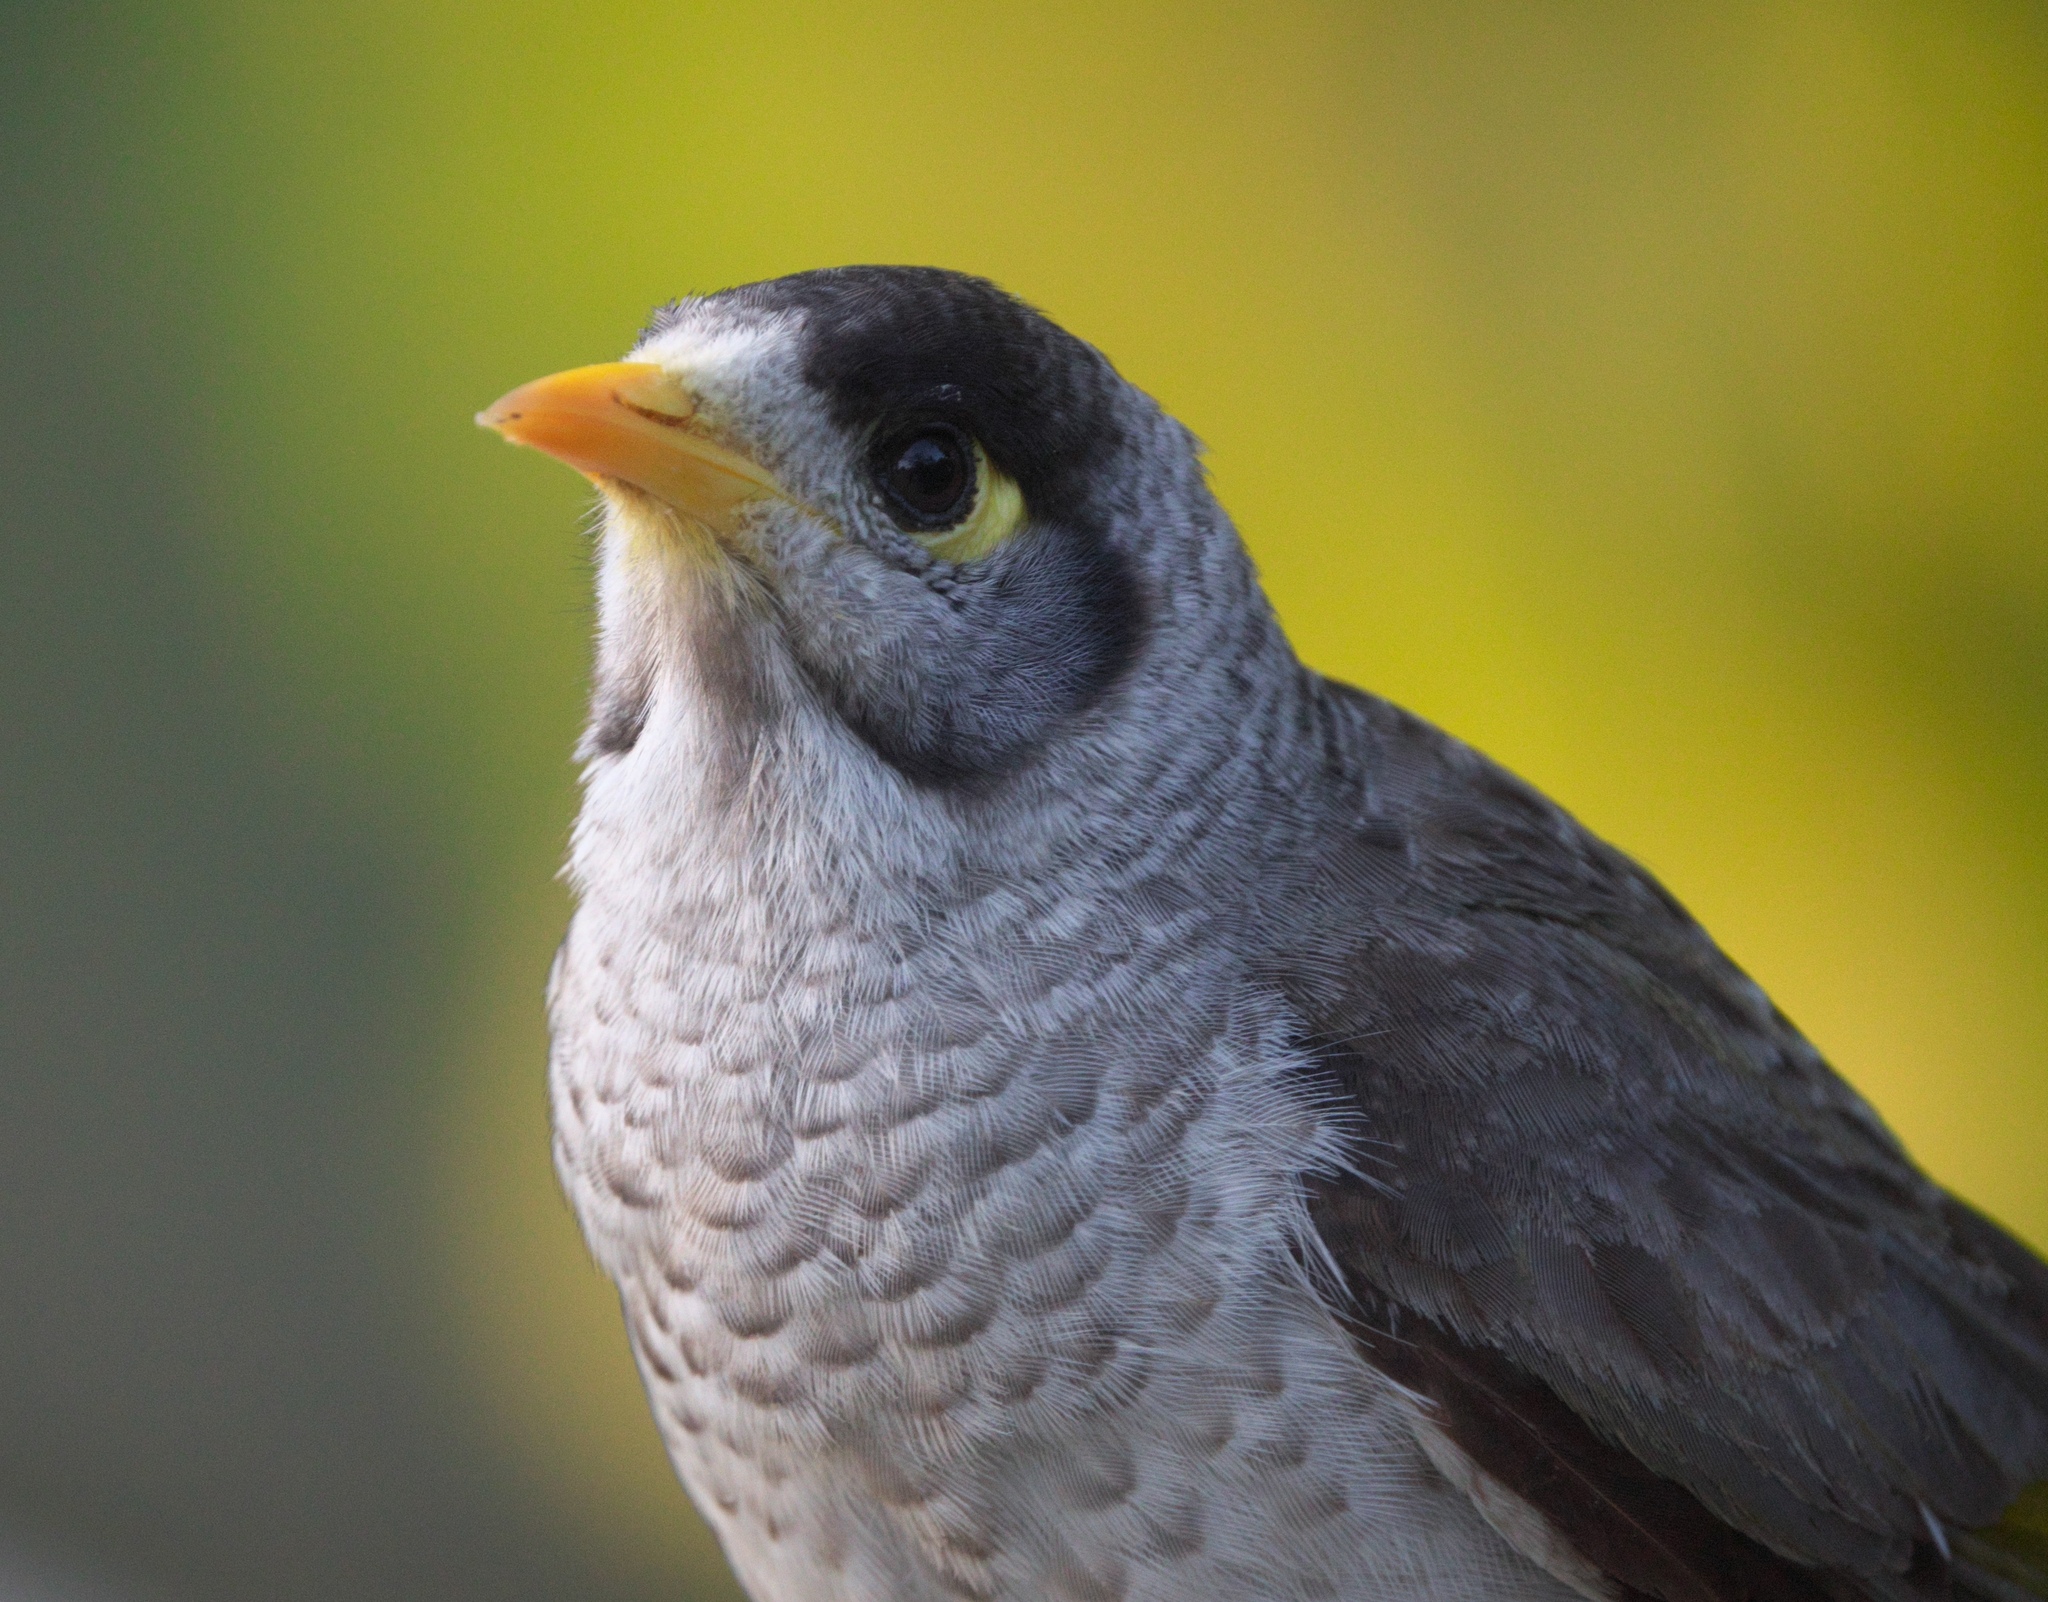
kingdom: Animalia
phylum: Chordata
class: Aves
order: Passeriformes
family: Meliphagidae
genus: Manorina
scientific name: Manorina melanocephala
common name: Noisy miner
